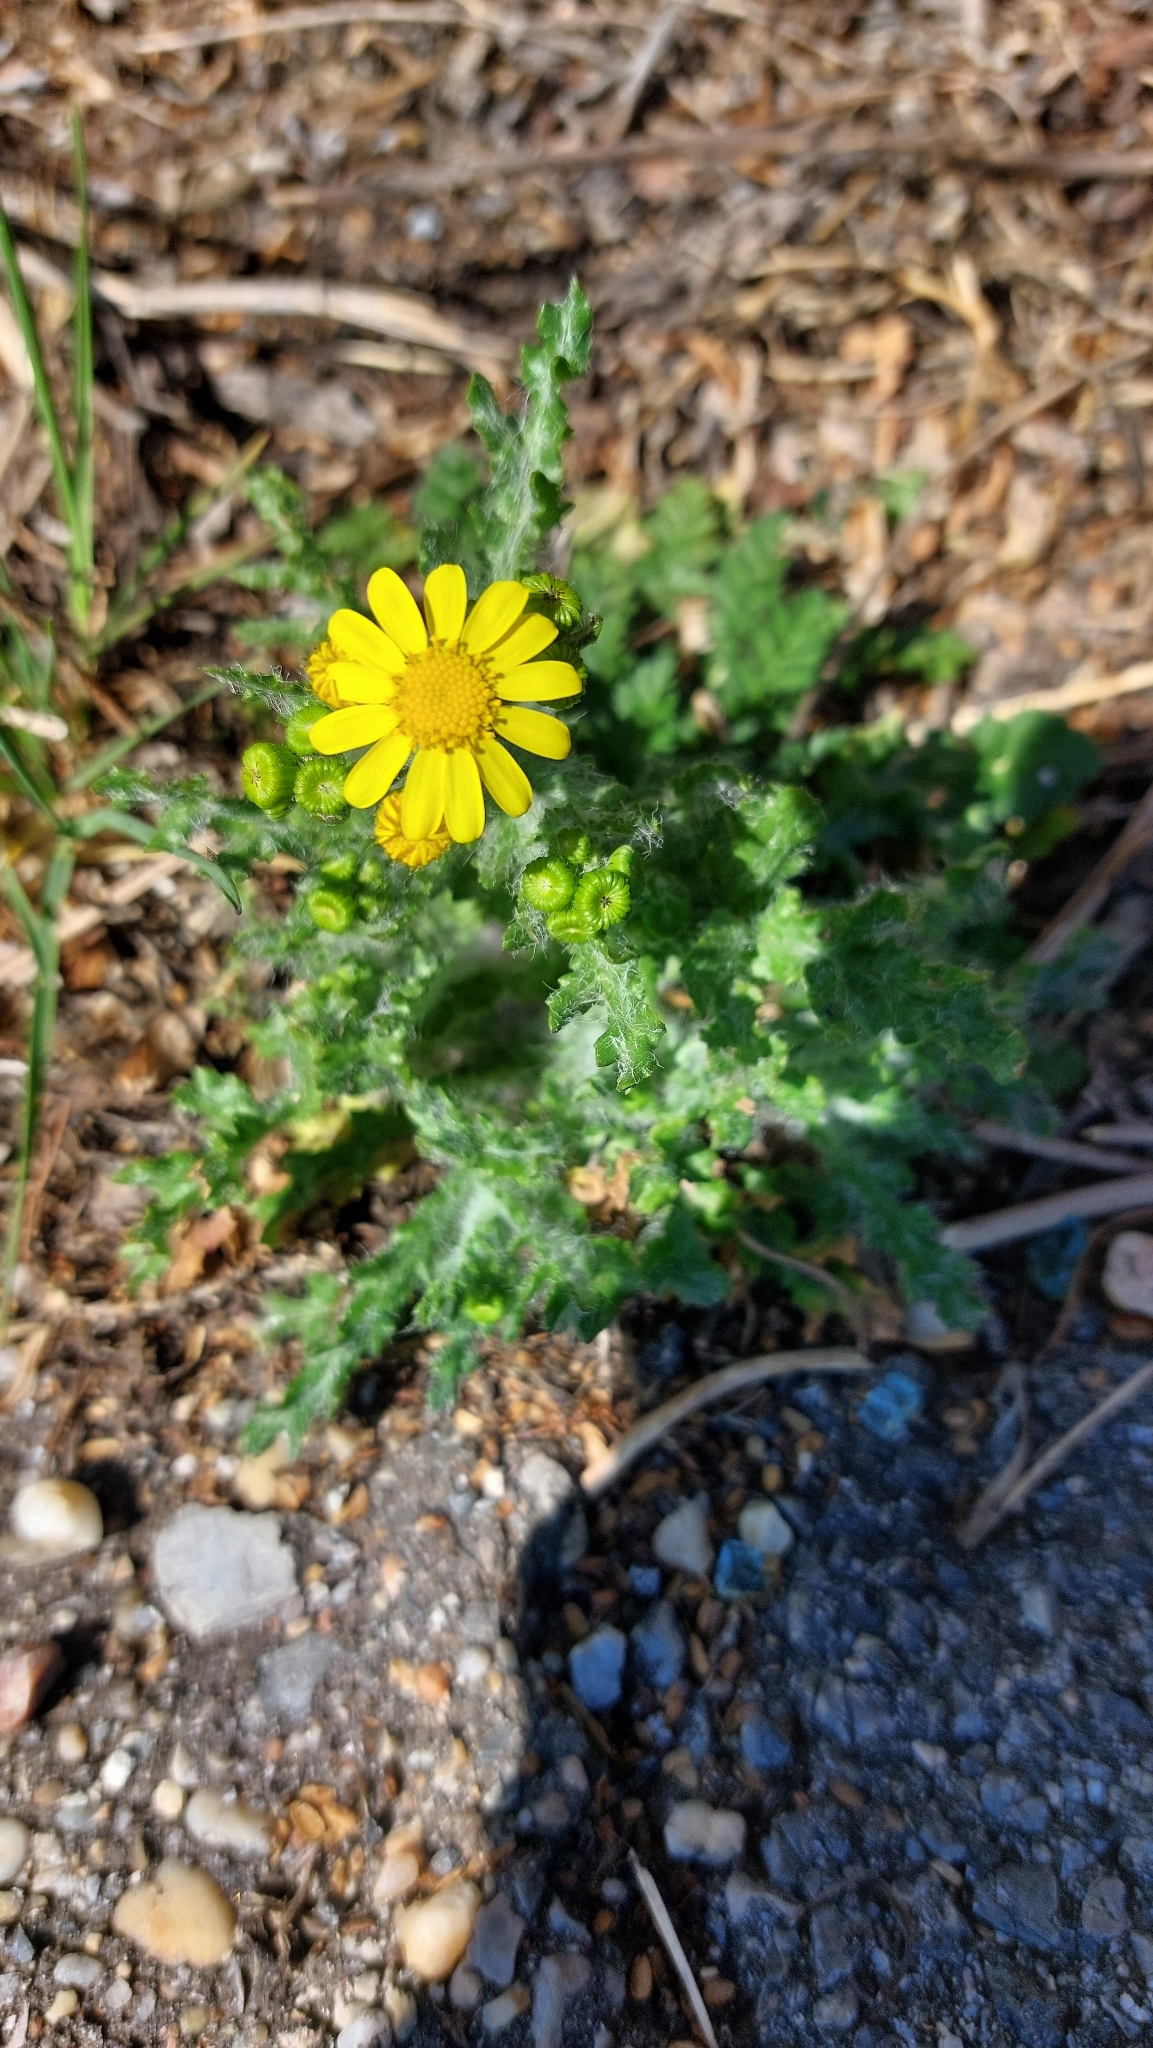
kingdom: Plantae
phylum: Tracheophyta
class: Magnoliopsida
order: Asterales
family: Asteraceae
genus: Senecio
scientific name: Senecio vernalis
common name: Eastern groundsel
